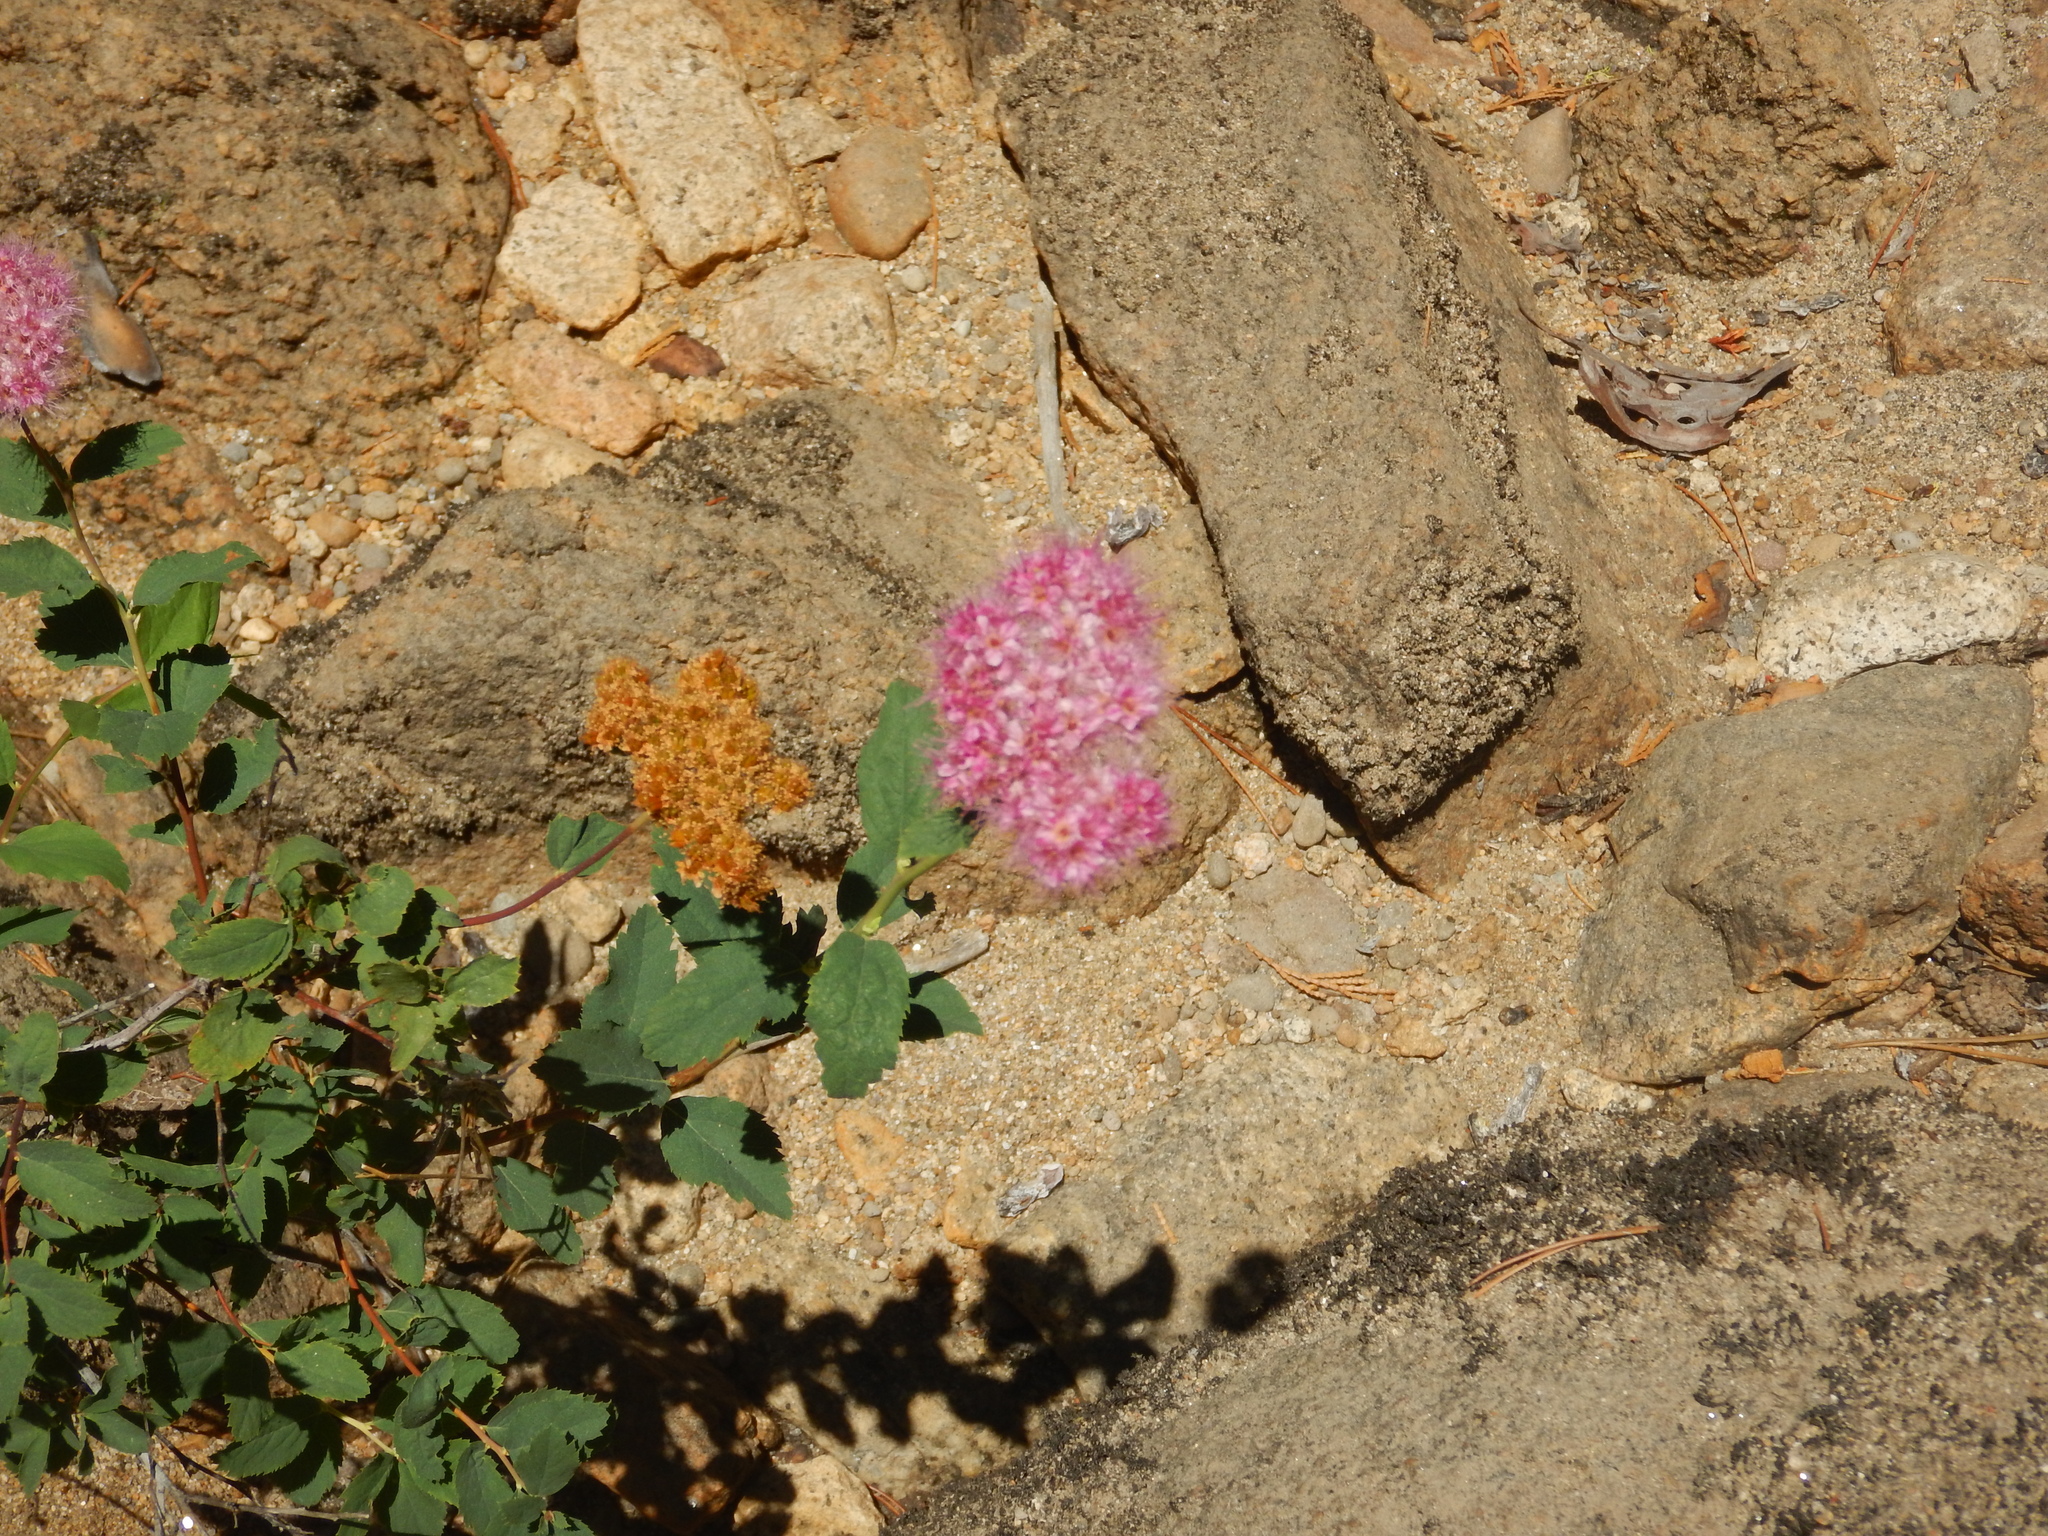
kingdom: Plantae
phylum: Tracheophyta
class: Magnoliopsida
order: Rosales
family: Rosaceae
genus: Spiraea
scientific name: Spiraea splendens
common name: Subalpine meadowsweet
